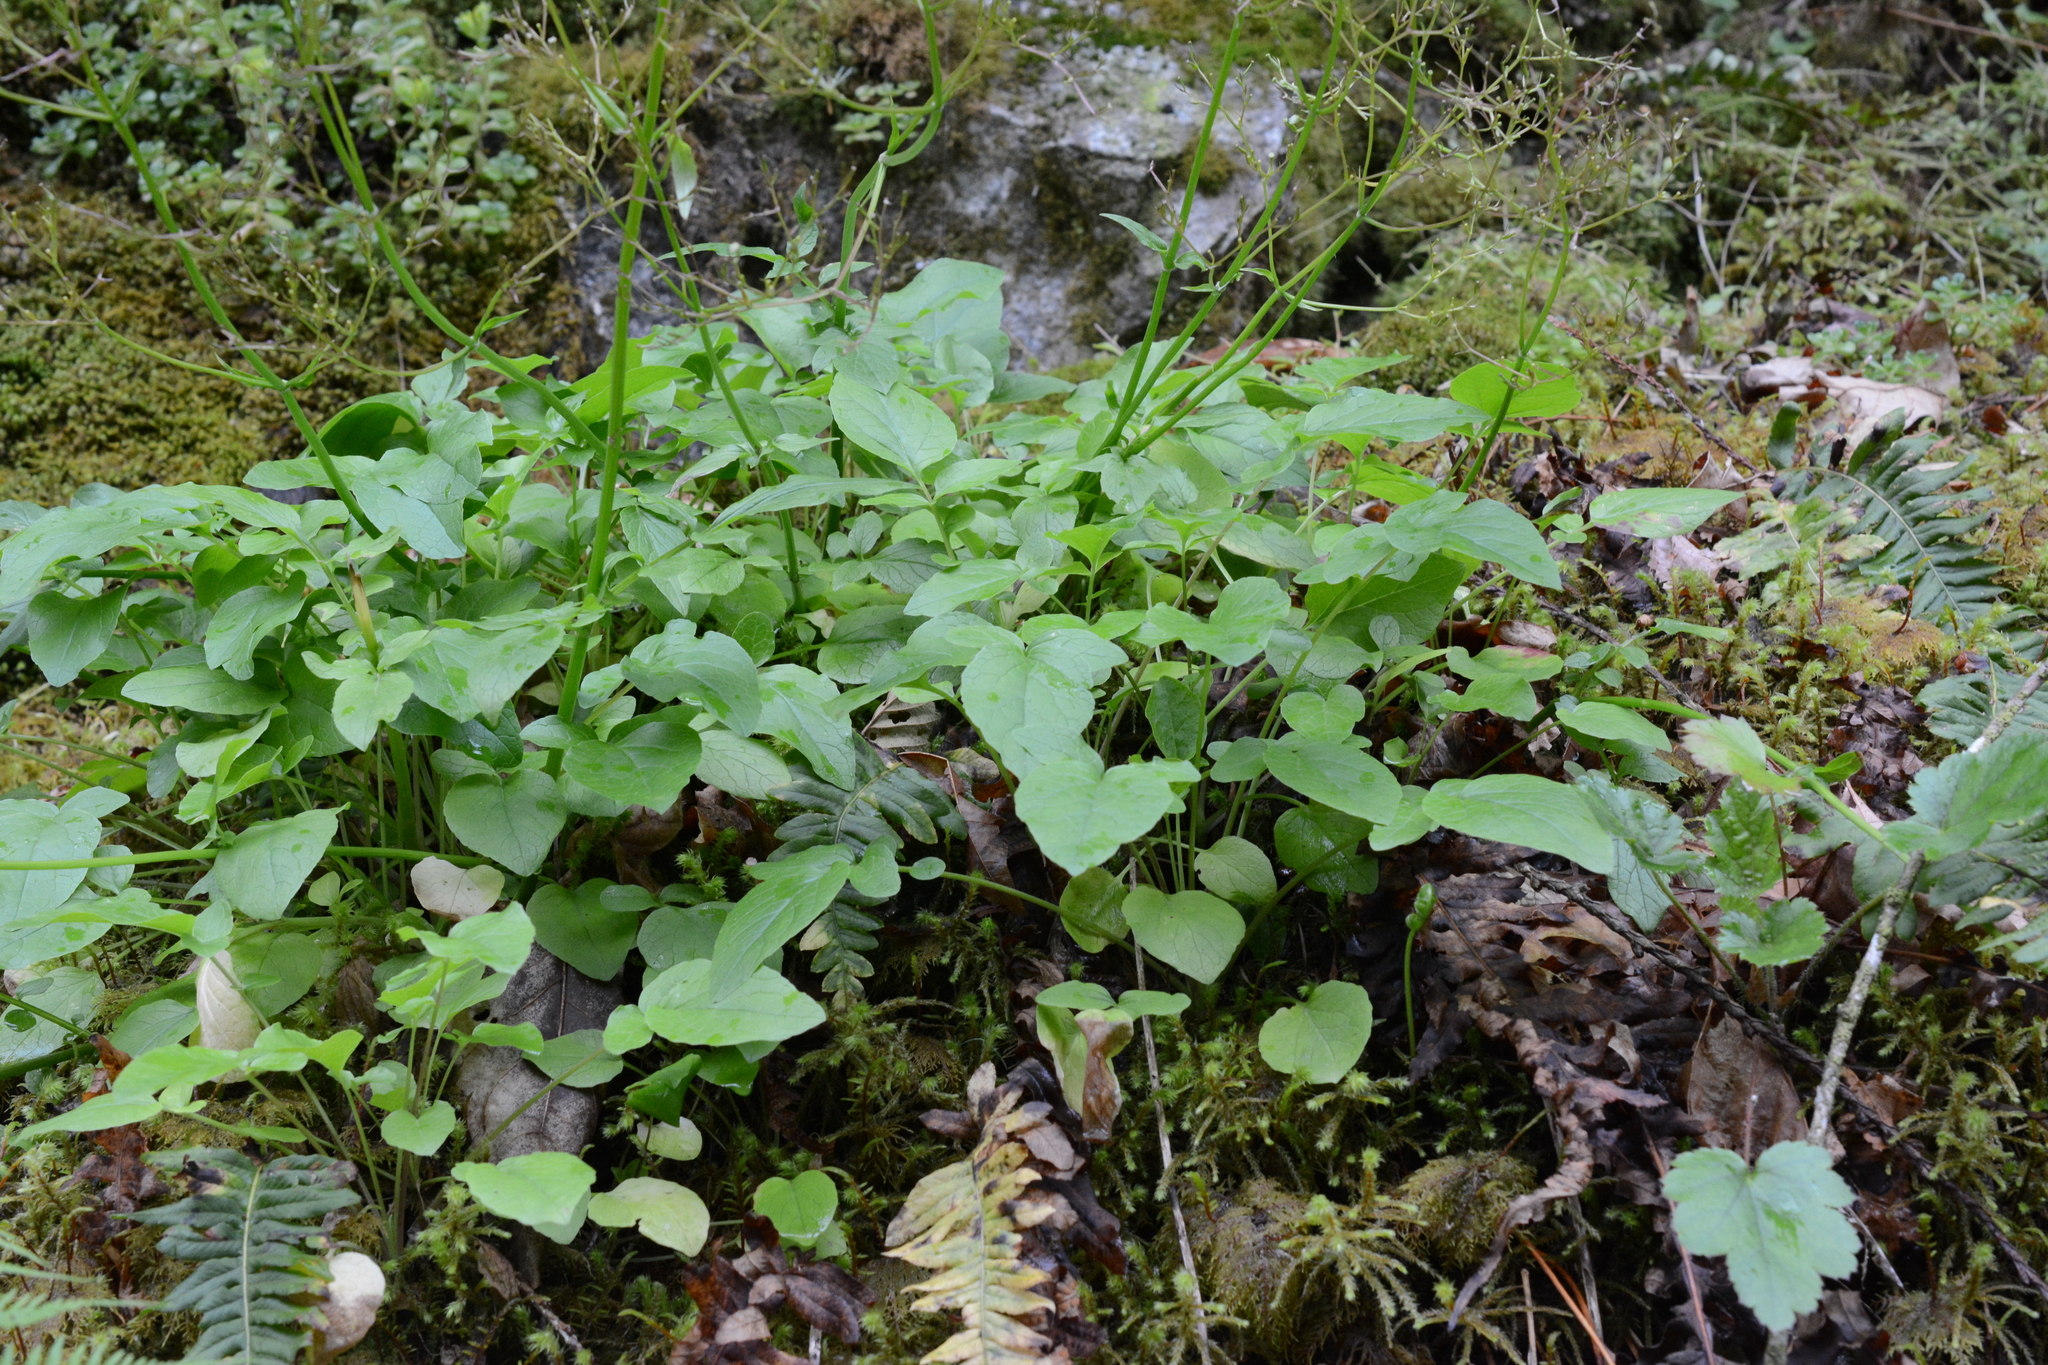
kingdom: Plantae
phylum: Tracheophyta
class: Magnoliopsida
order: Dipsacales
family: Caprifoliaceae
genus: Valeriana
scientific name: Valeriana sitchensis
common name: Pacific valerian
